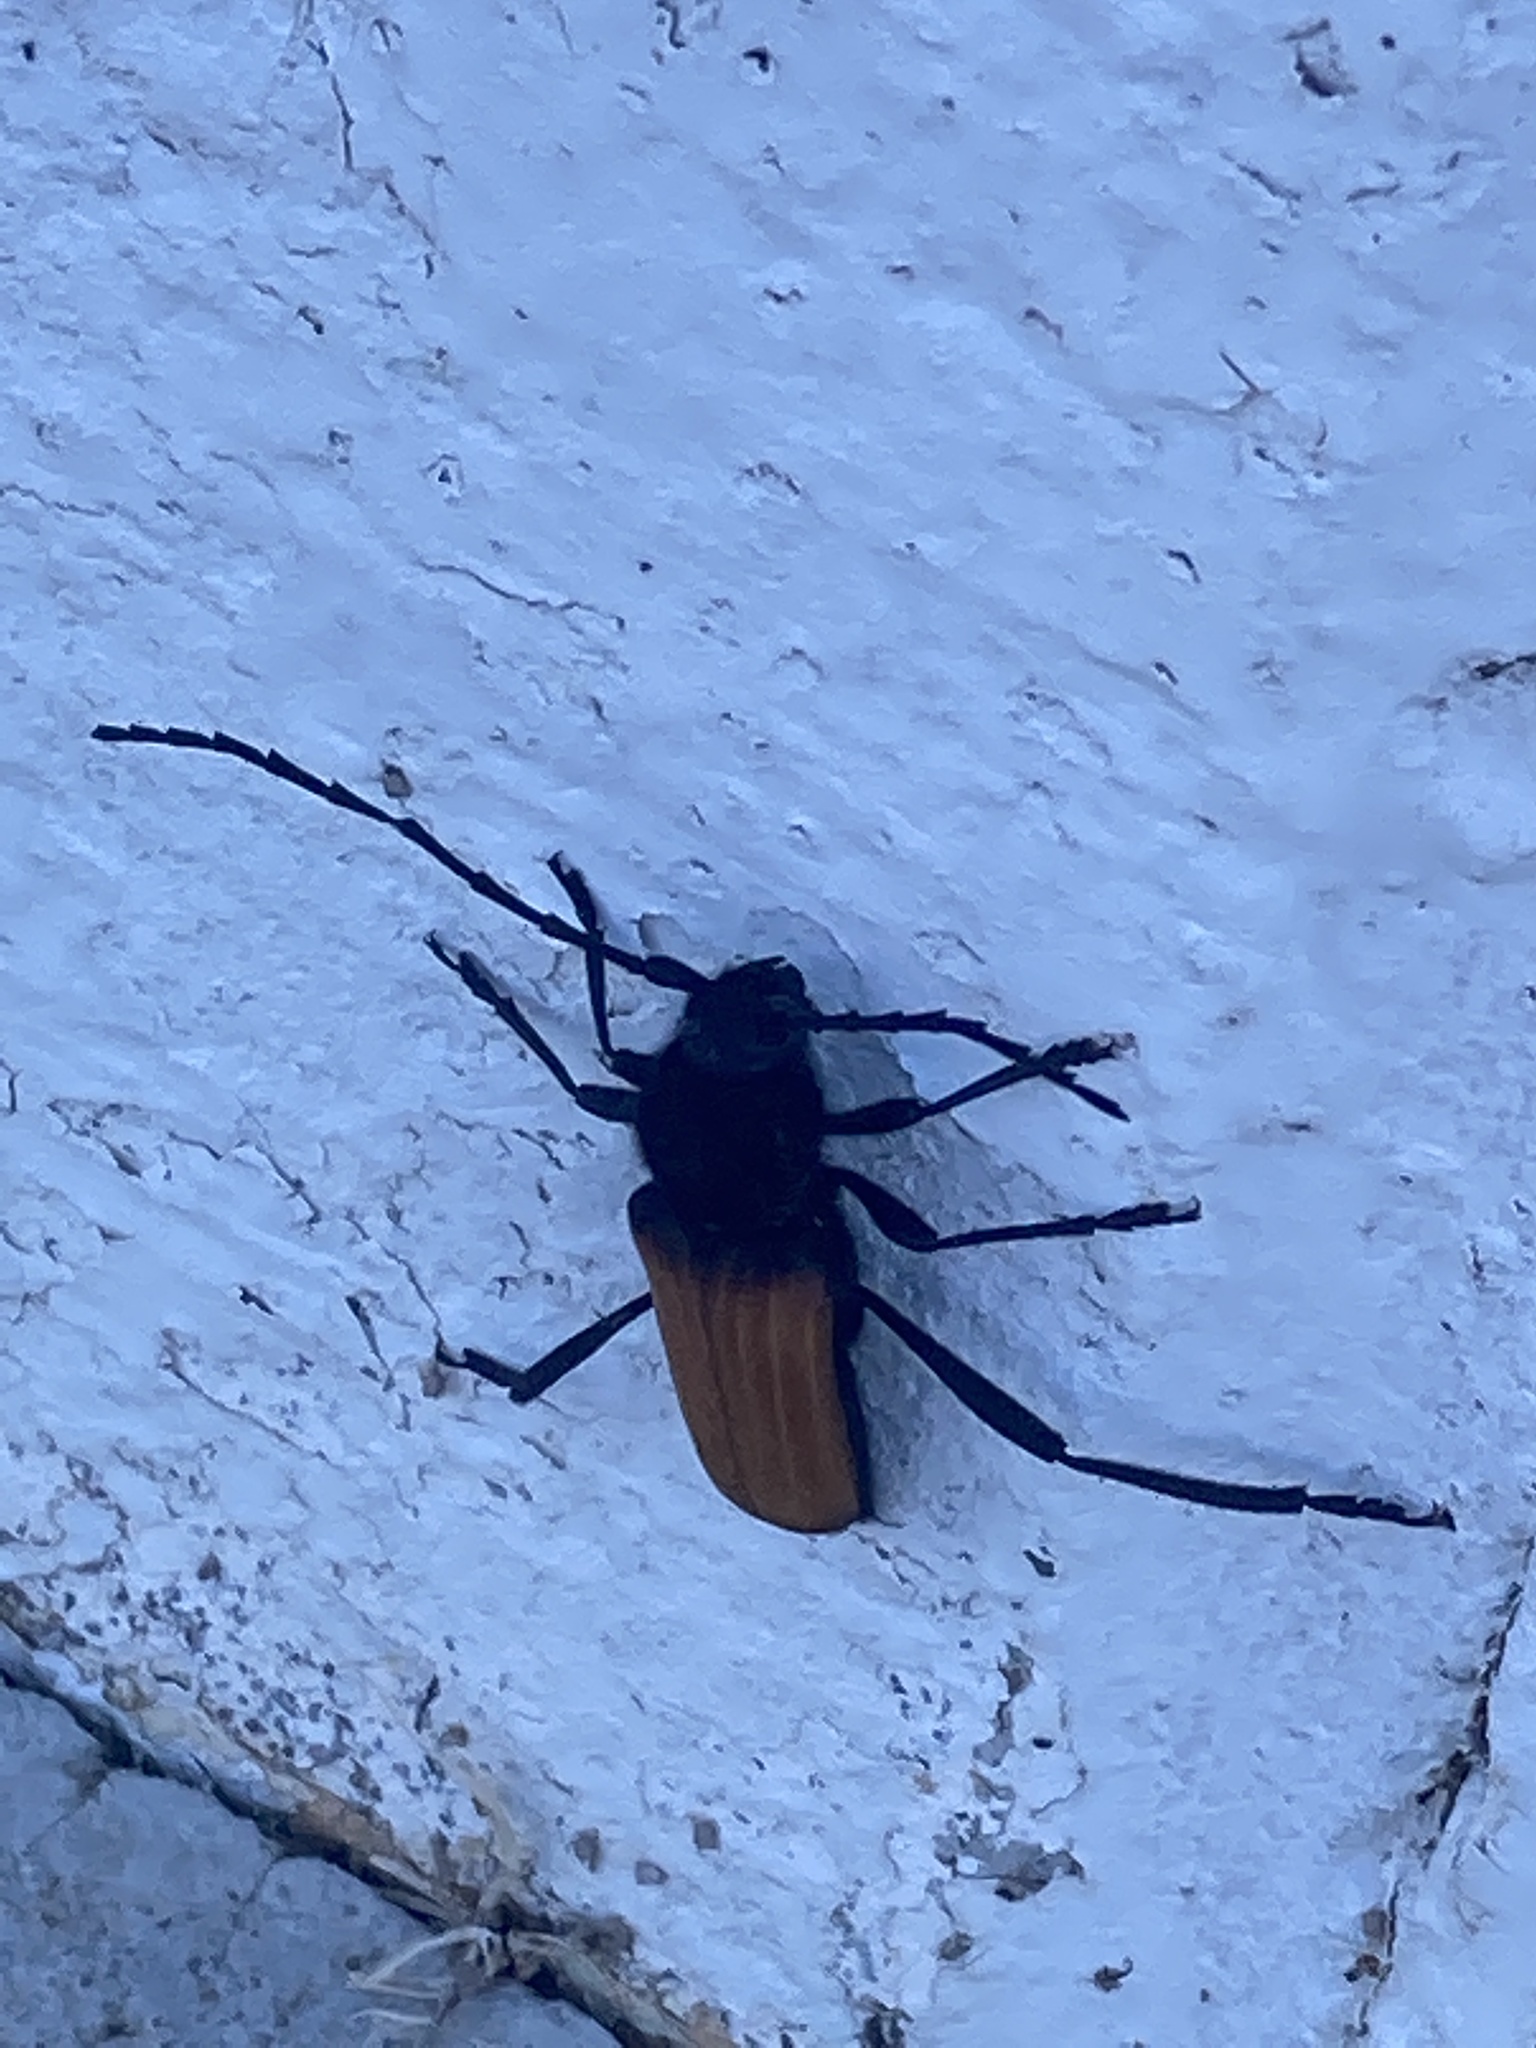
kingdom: Animalia
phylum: Arthropoda
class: Insecta
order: Coleoptera
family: Cerambycidae
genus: Tragidion
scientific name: Tragidion coquus
